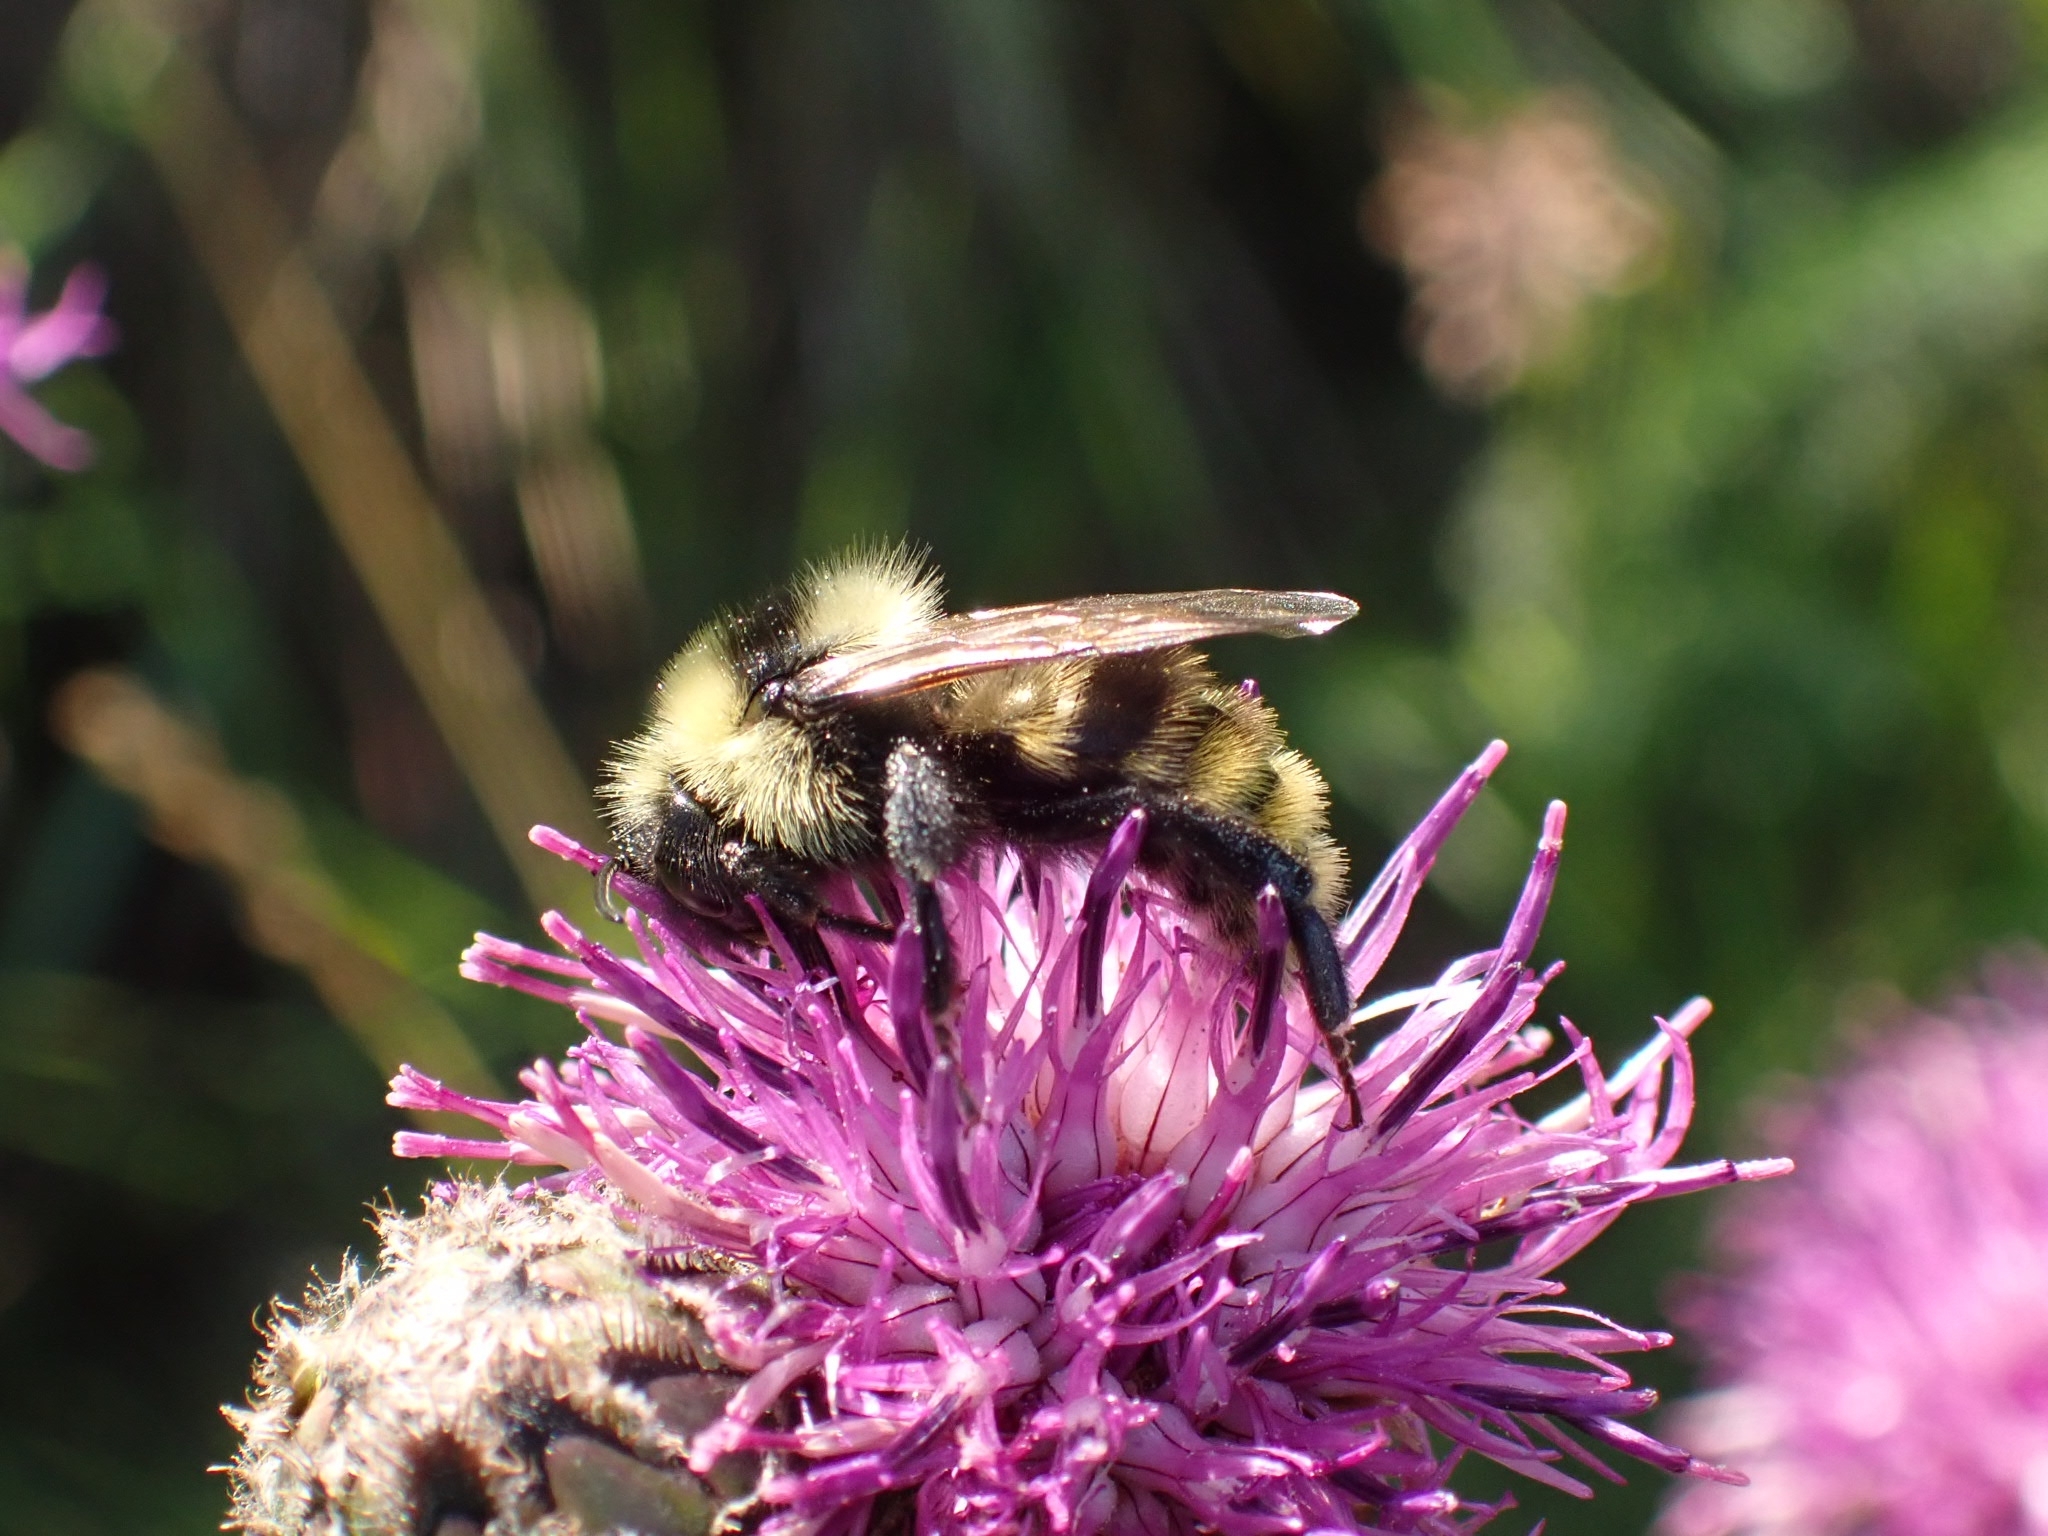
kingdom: Animalia
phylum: Arthropoda
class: Insecta
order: Hymenoptera
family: Apidae
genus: Bombus
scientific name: Bombus campestris
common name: Field cuckoo-bee
